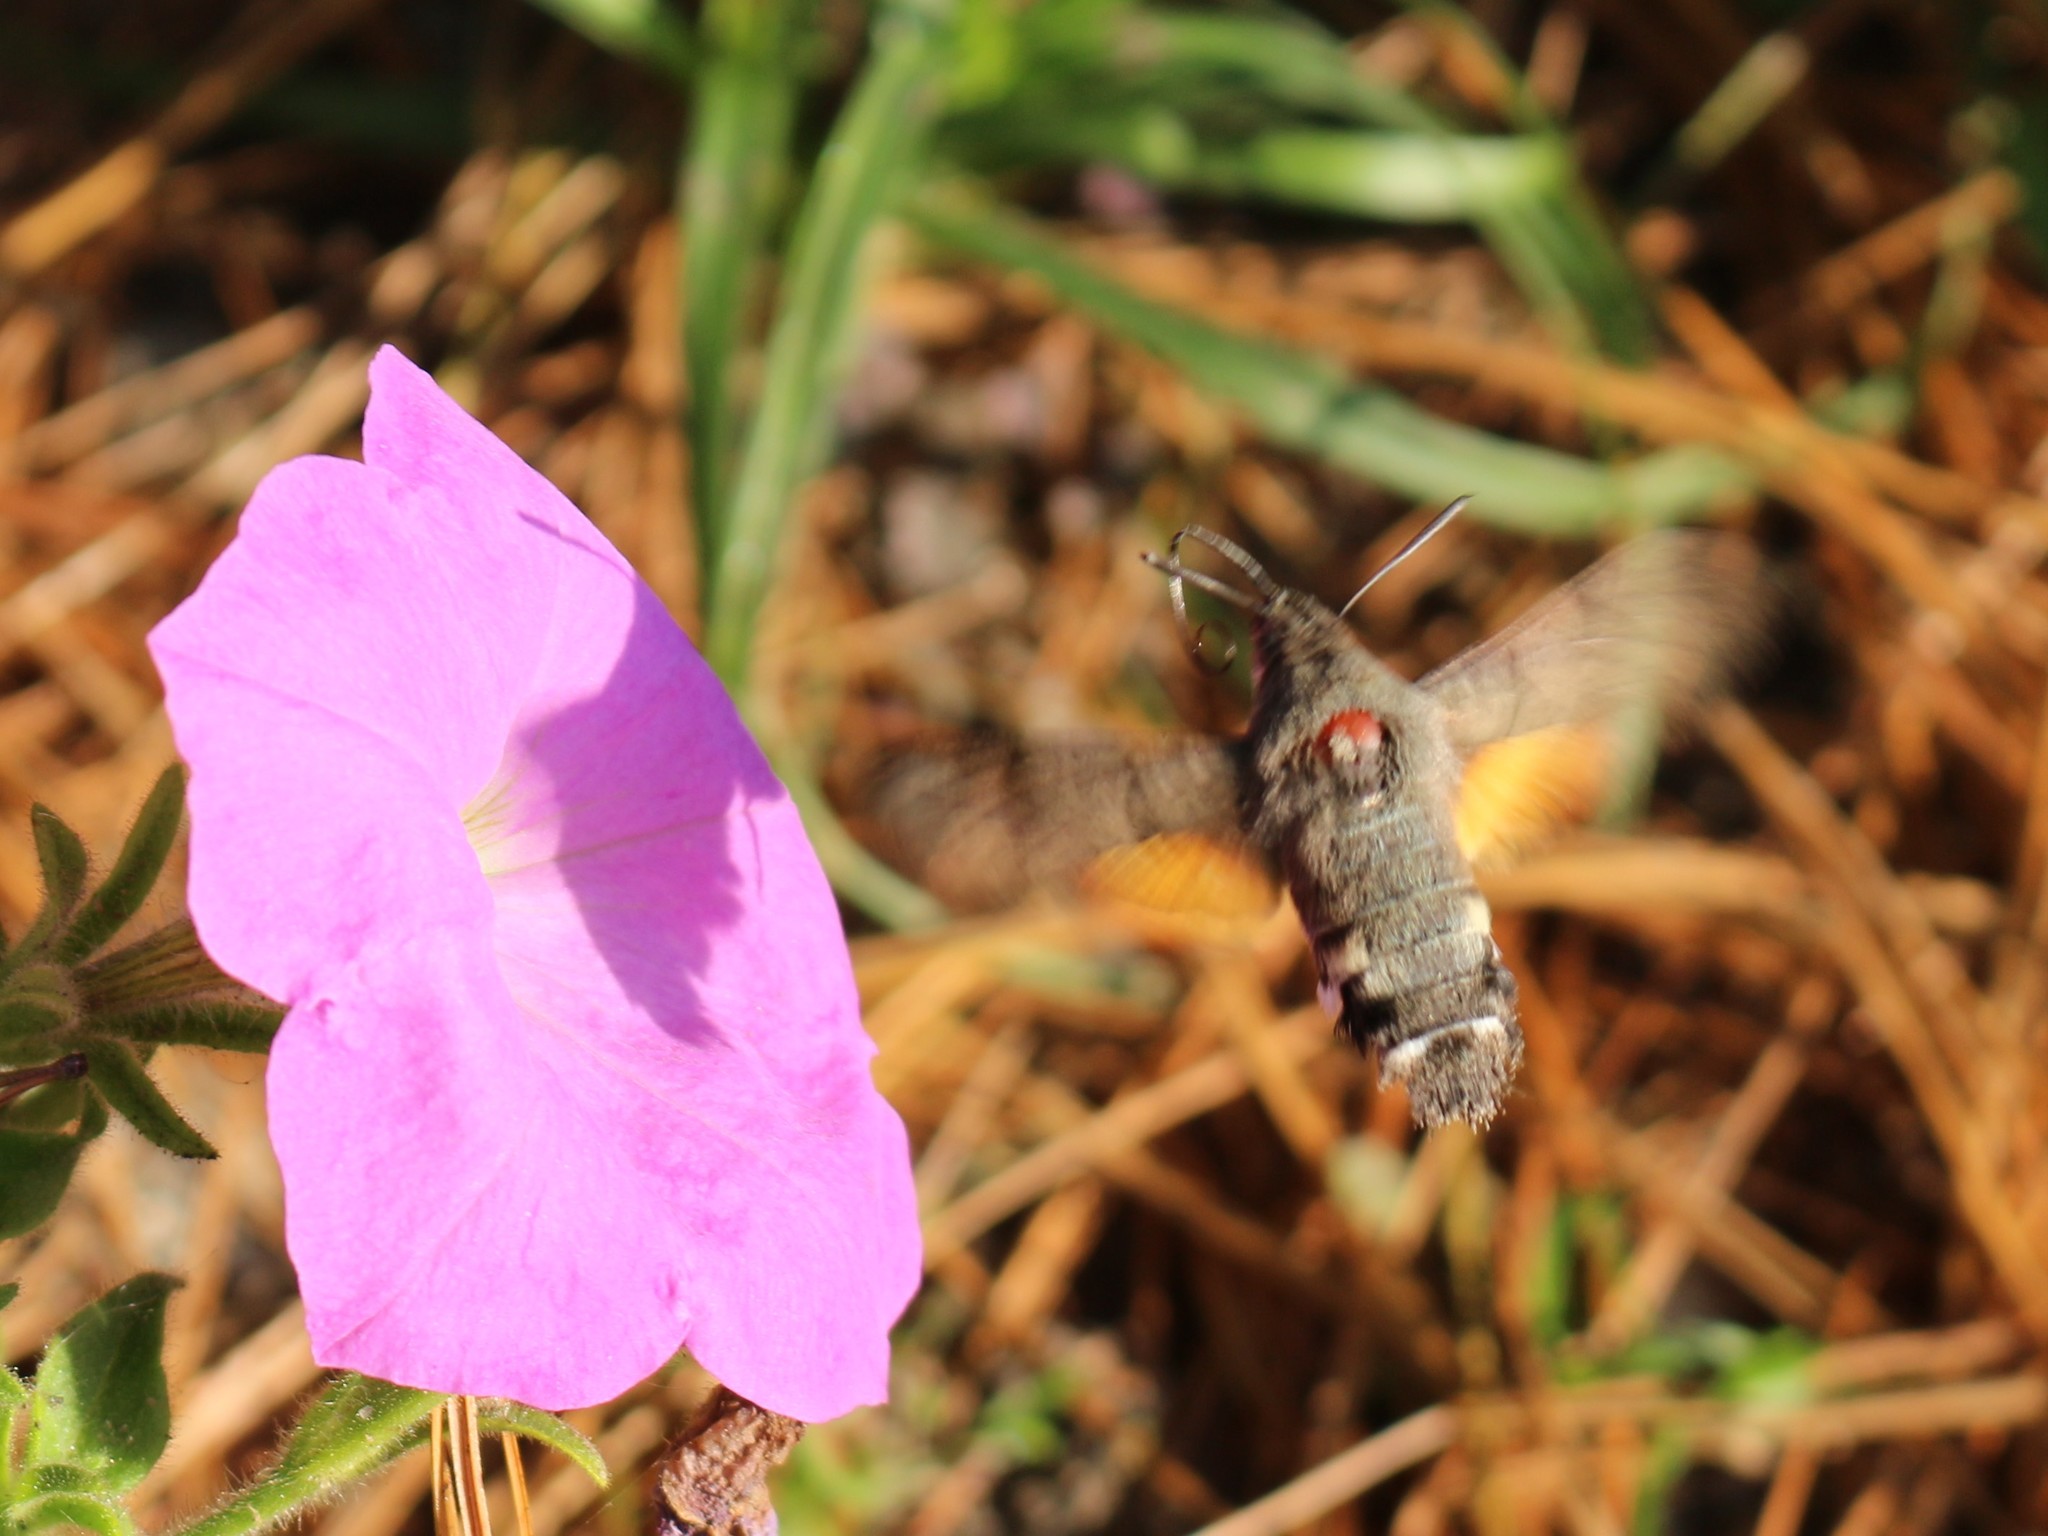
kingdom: Animalia
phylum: Arthropoda
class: Insecta
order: Lepidoptera
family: Sphingidae
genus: Macroglossum
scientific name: Macroglossum stellatarum
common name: Humming-bird hawk-moth
